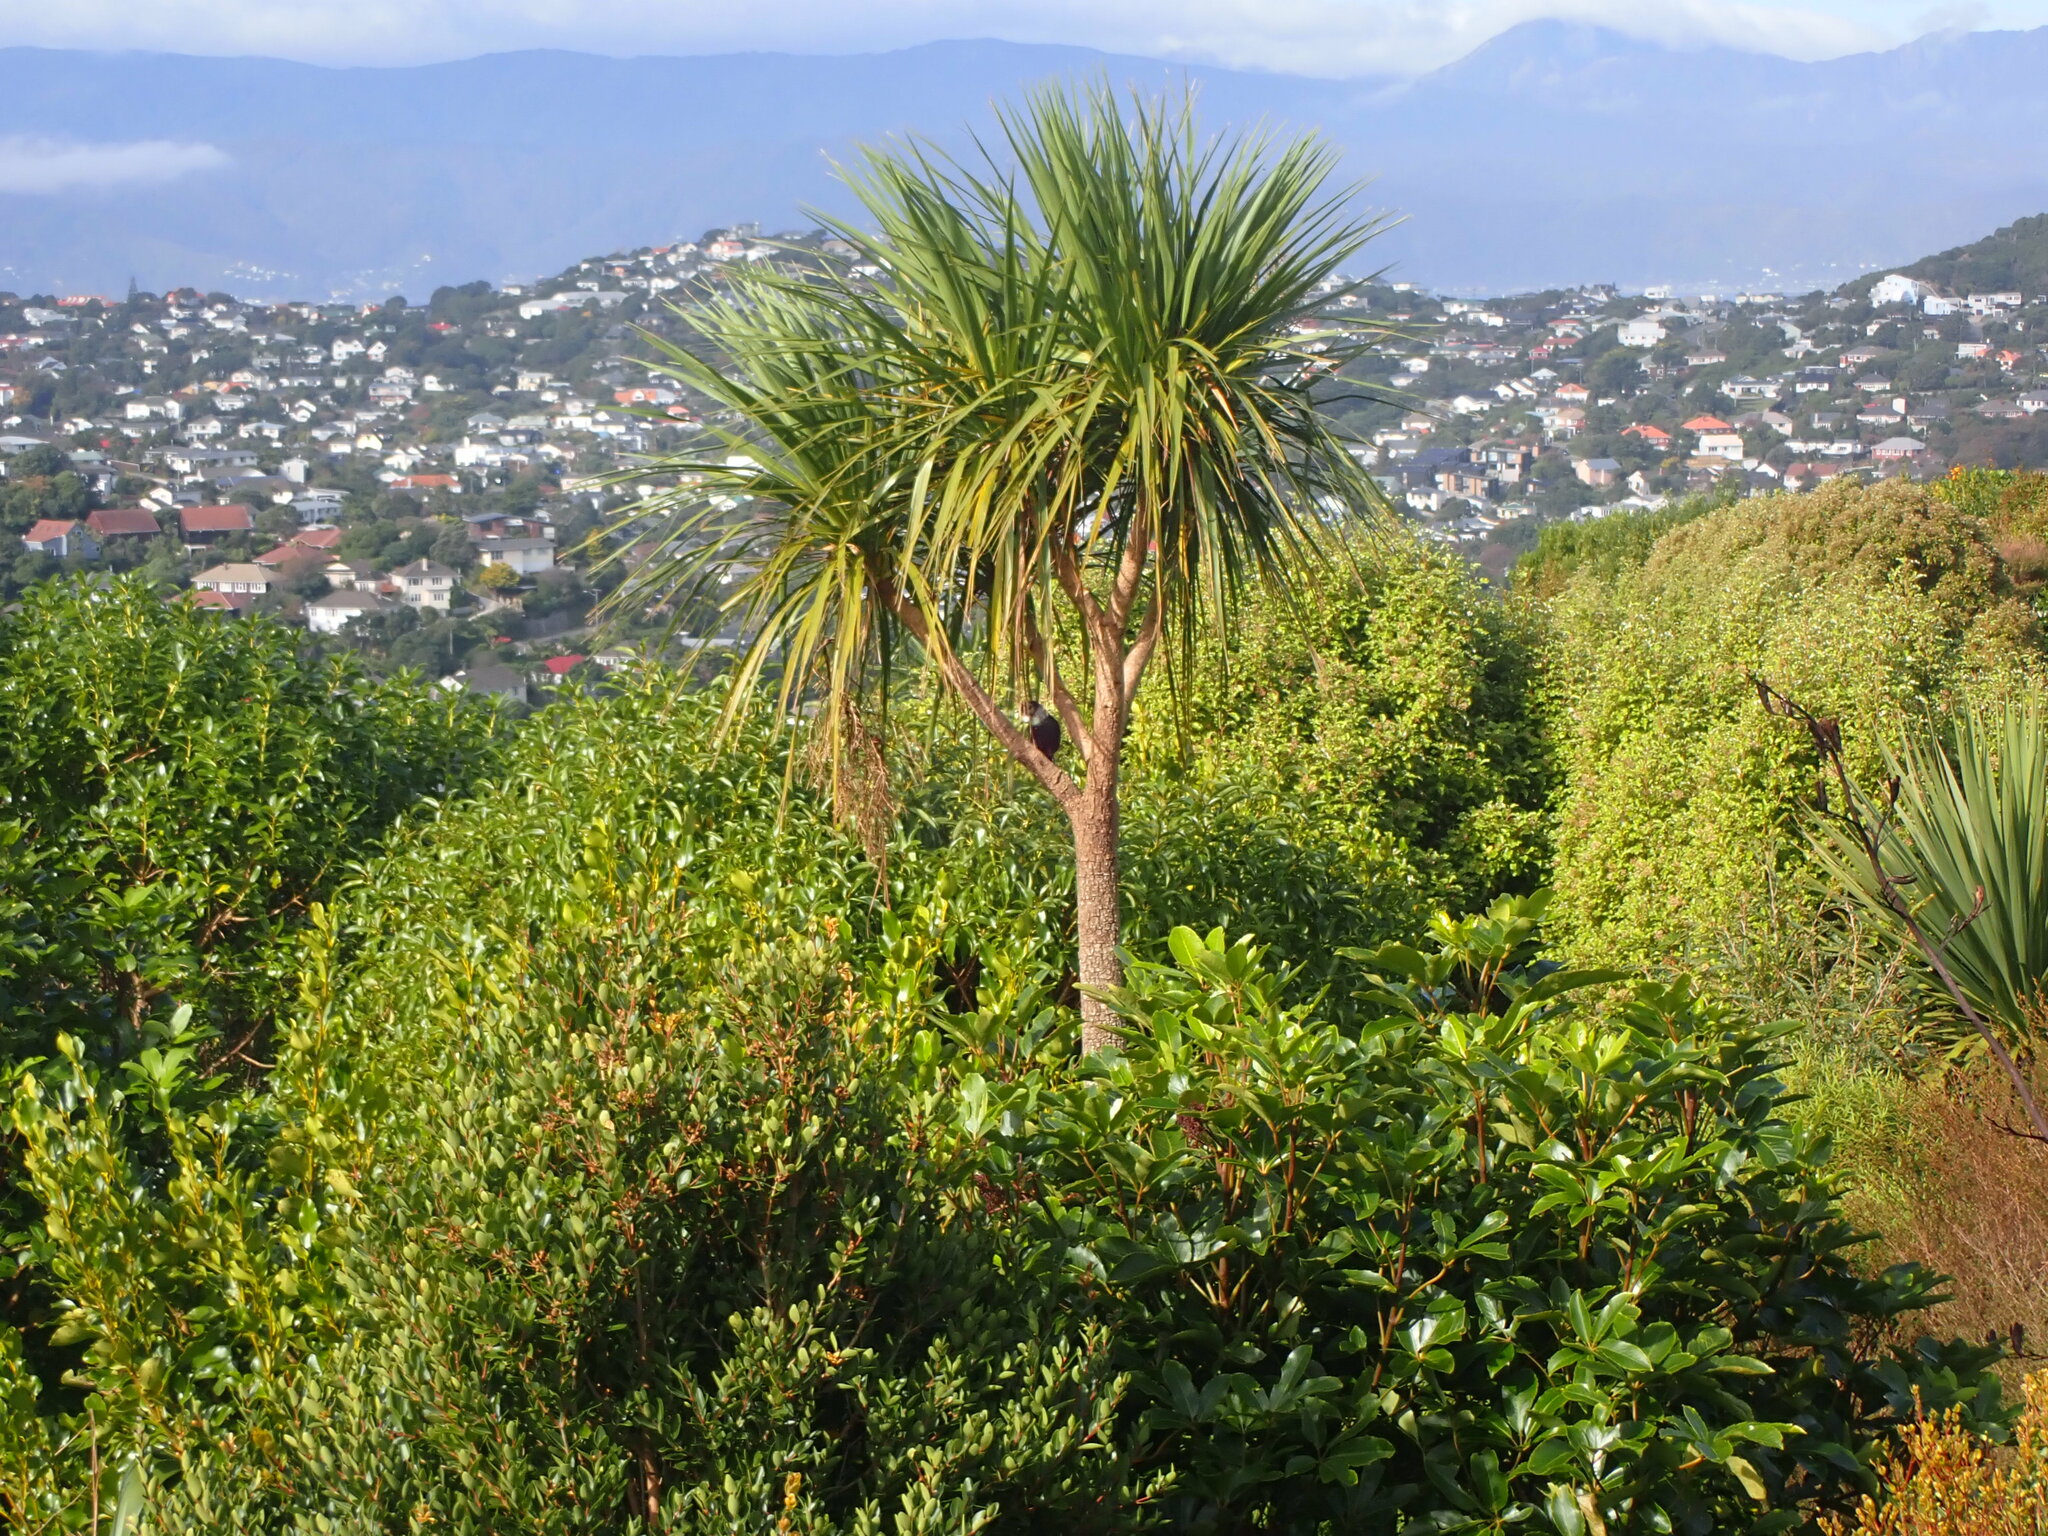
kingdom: Animalia
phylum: Chordata
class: Aves
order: Passeriformes
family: Meliphagidae
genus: Prosthemadera
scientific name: Prosthemadera novaeseelandiae
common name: Tui
